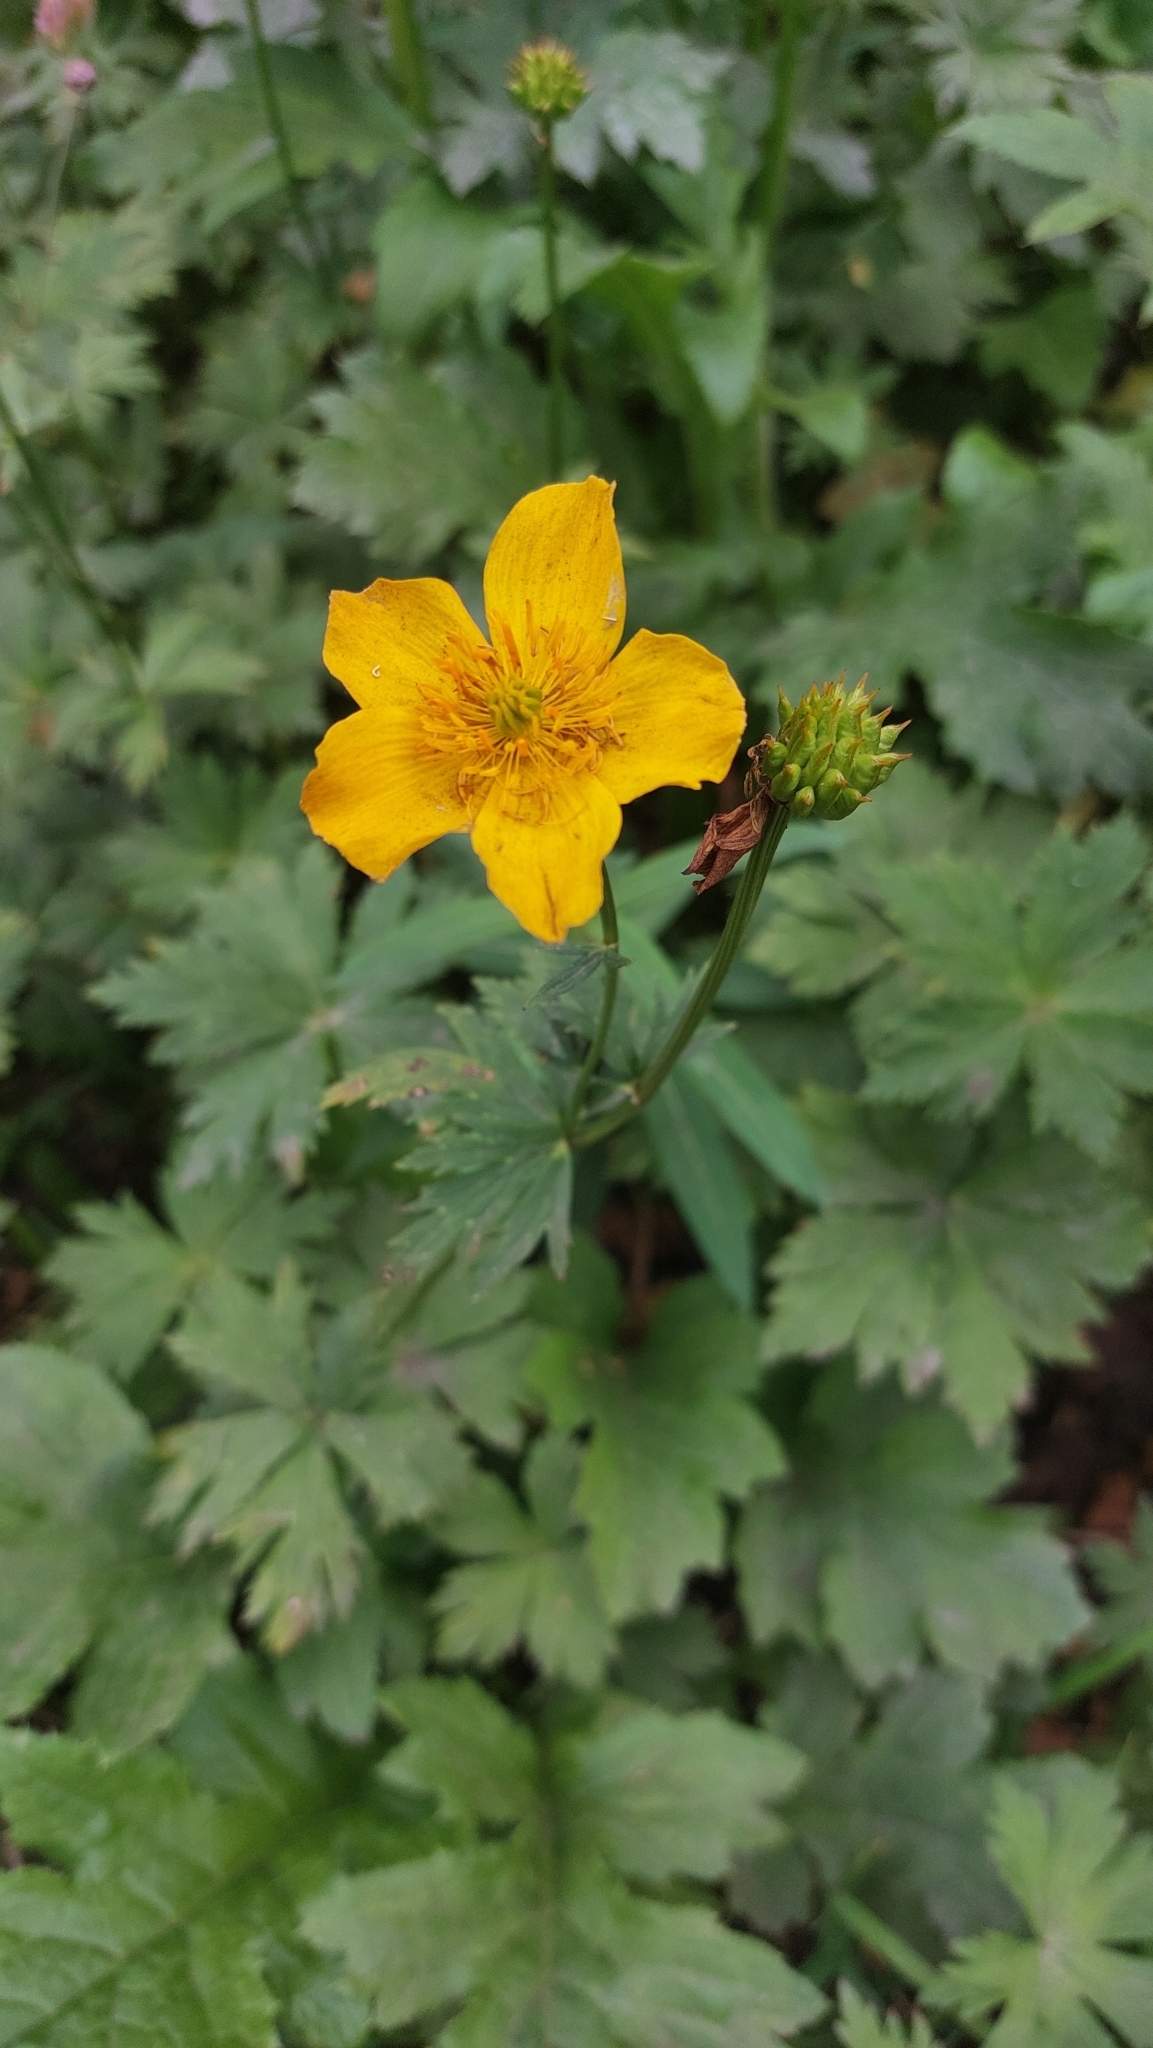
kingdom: Plantae
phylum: Tracheophyta
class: Magnoliopsida
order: Ranunculales
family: Ranunculaceae
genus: Trollius
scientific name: Trollius riederianus
